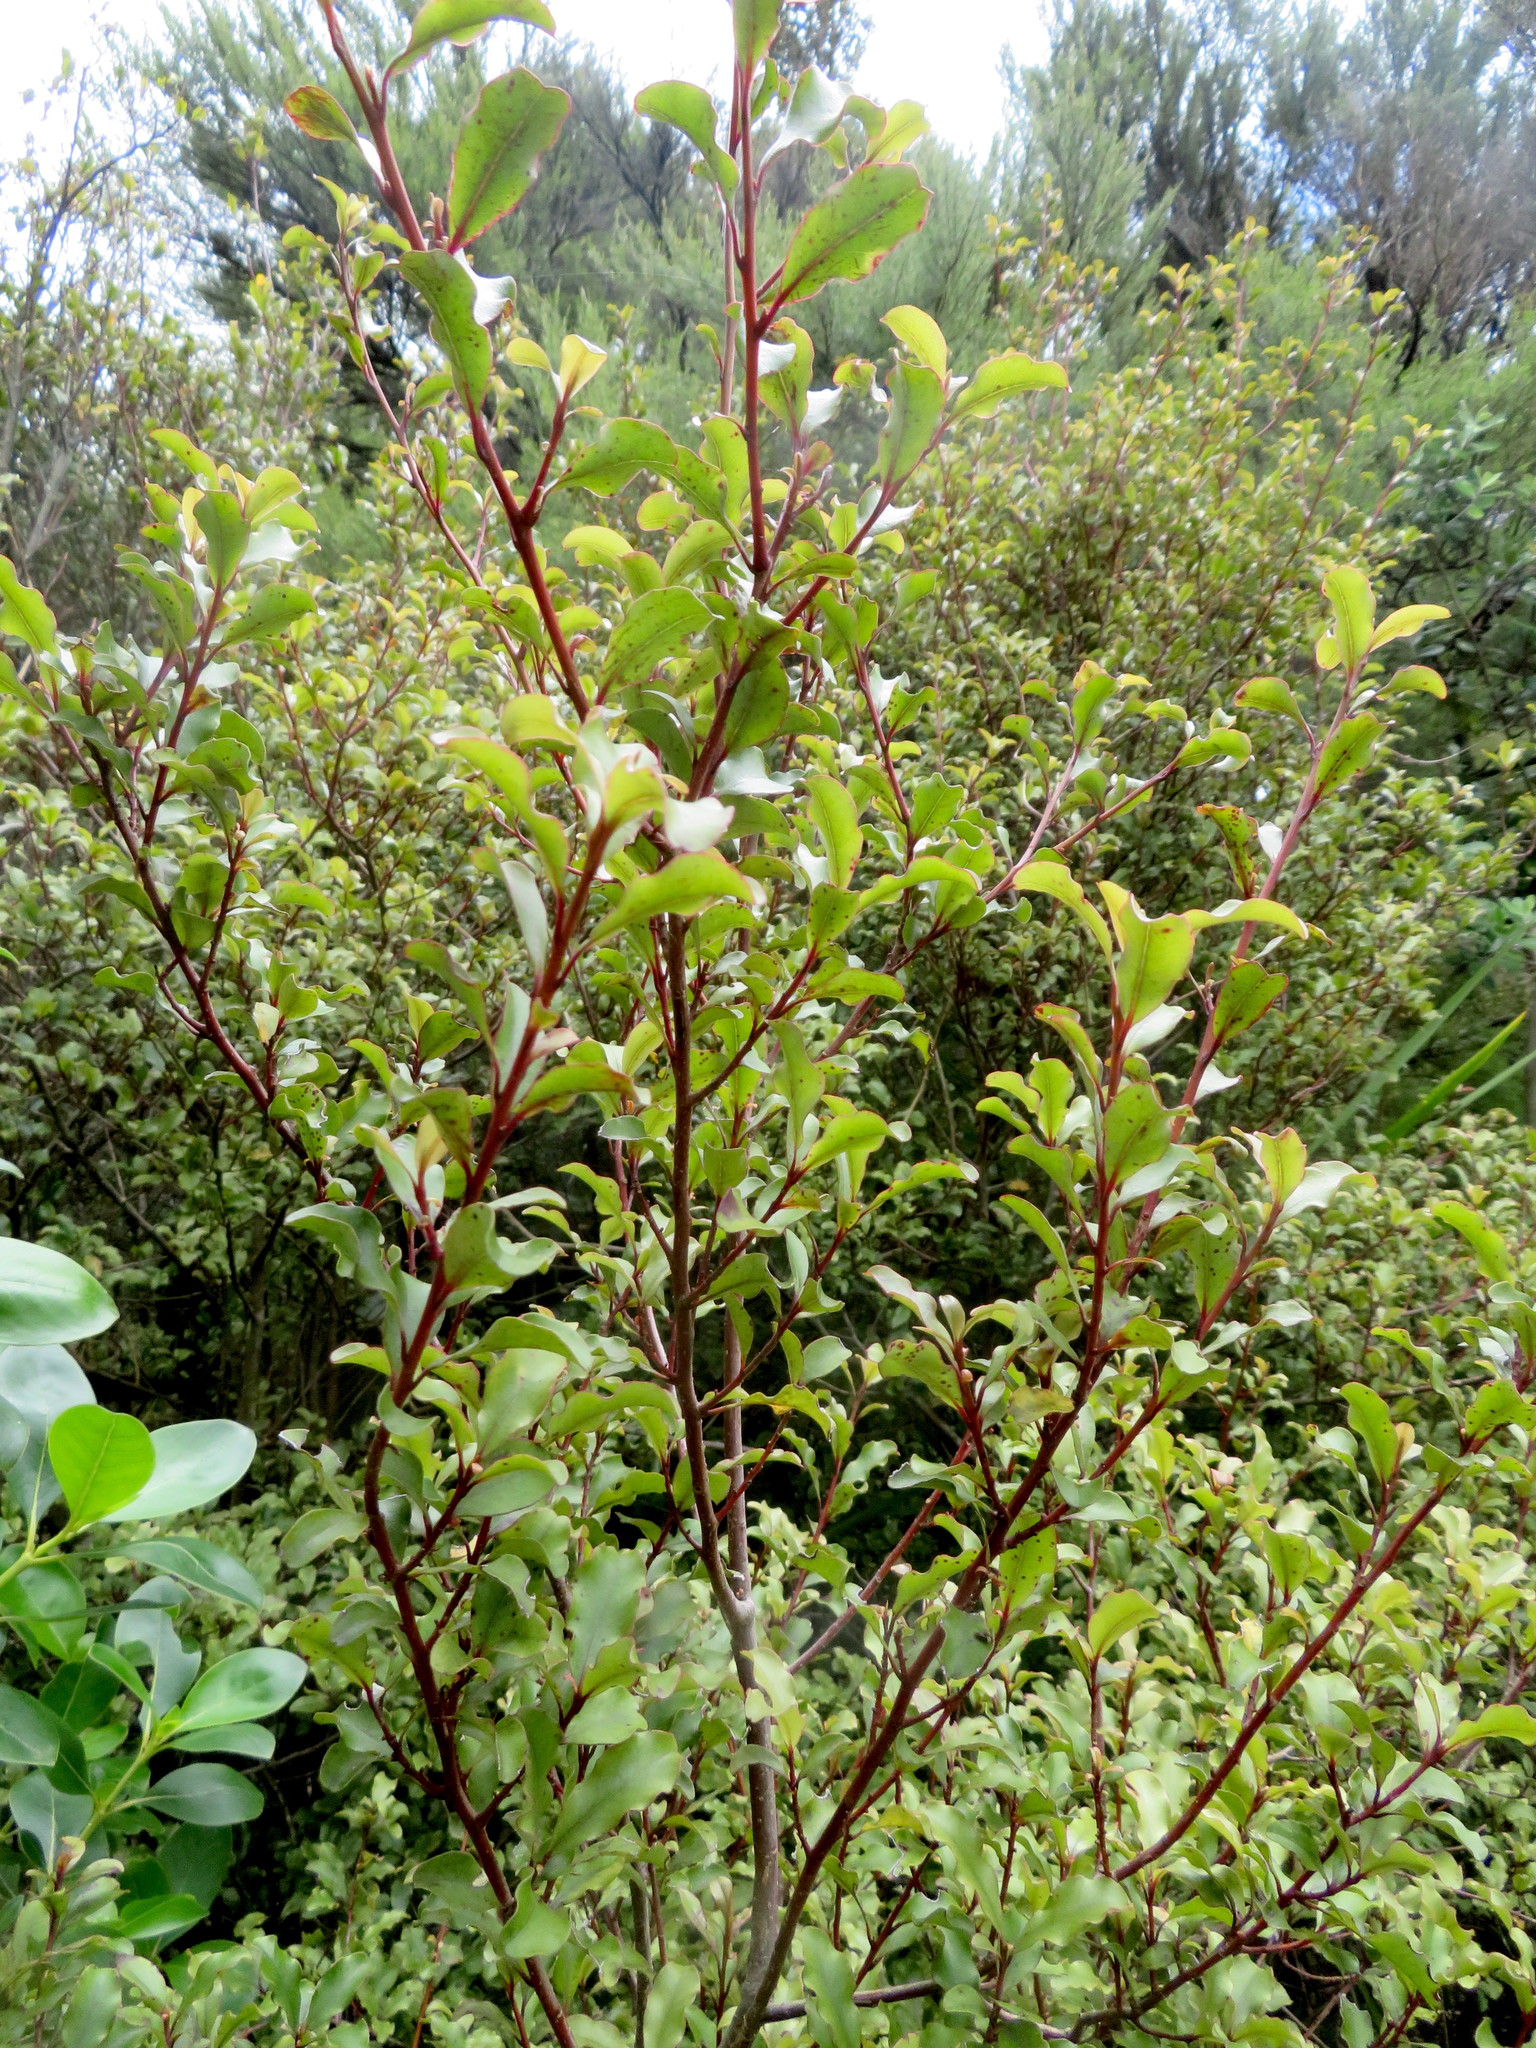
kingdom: Plantae
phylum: Tracheophyta
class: Magnoliopsida
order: Ericales
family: Primulaceae
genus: Myrsine
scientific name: Myrsine australis
